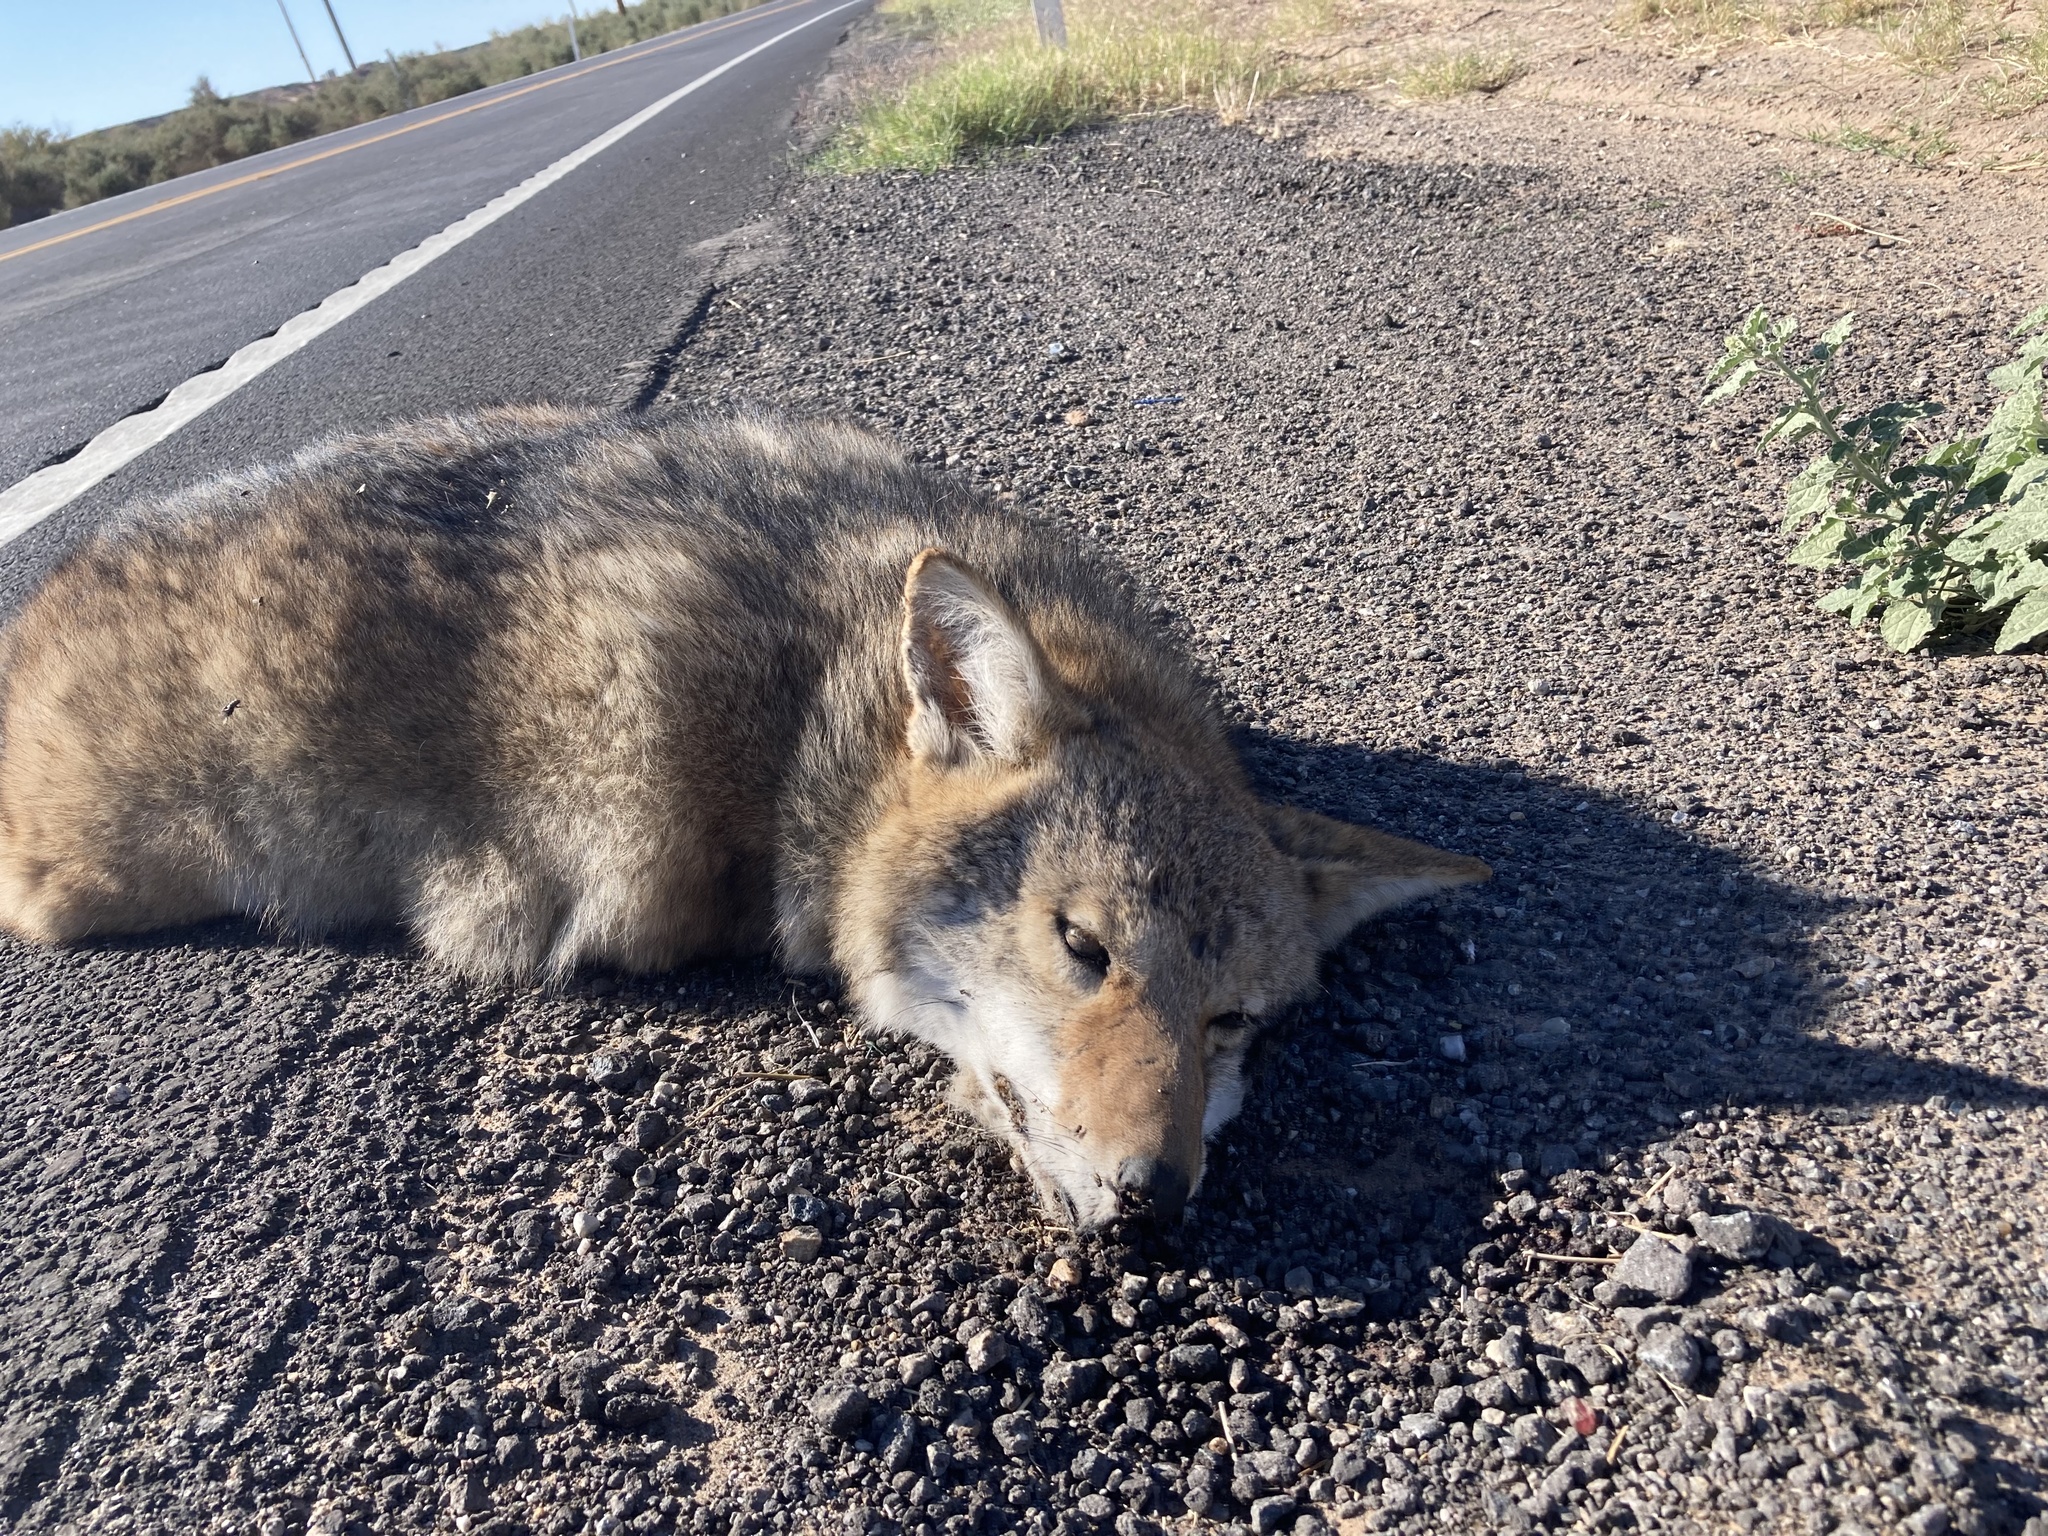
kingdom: Animalia
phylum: Chordata
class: Mammalia
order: Carnivora
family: Canidae
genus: Canis
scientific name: Canis latrans
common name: Coyote
